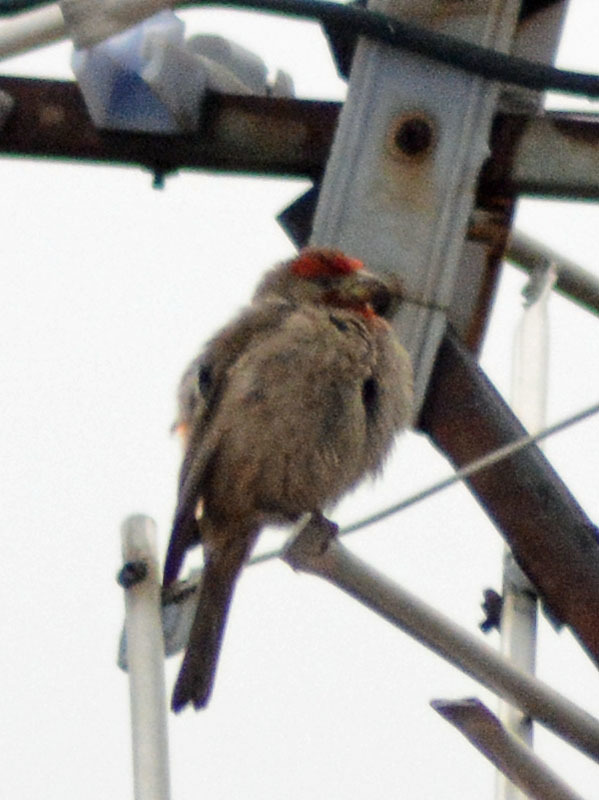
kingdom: Animalia
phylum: Chordata
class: Aves
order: Passeriformes
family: Fringillidae
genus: Haemorhous
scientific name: Haemorhous mexicanus
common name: House finch
